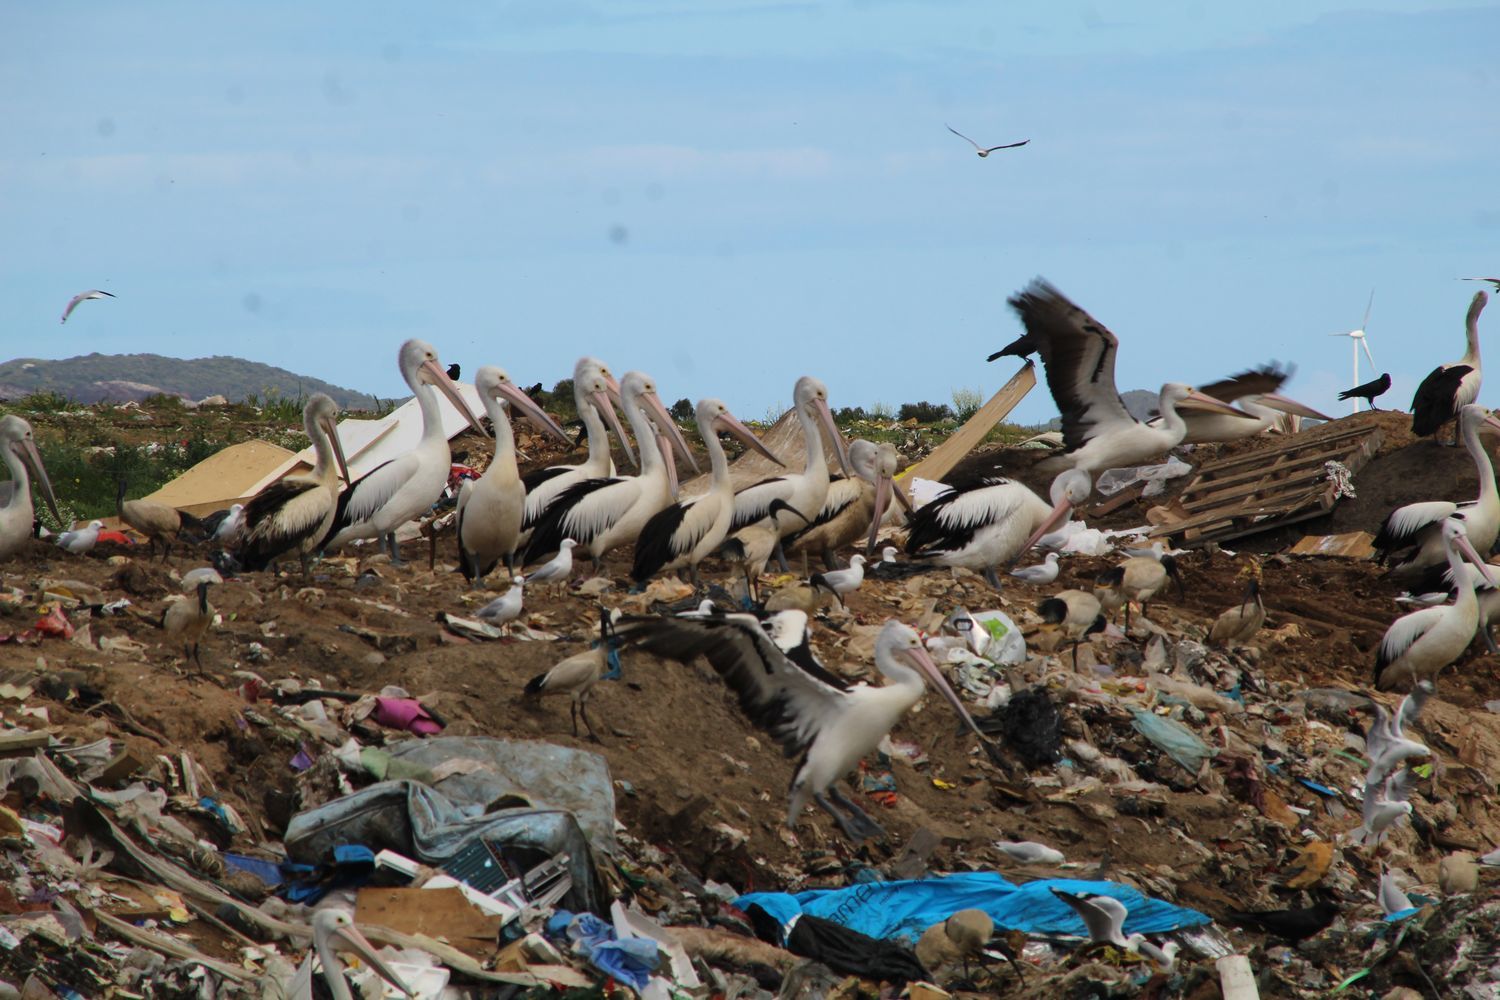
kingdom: Animalia
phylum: Chordata
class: Aves
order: Pelecaniformes
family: Pelecanidae
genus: Pelecanus
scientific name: Pelecanus conspicillatus
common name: Australian pelican
